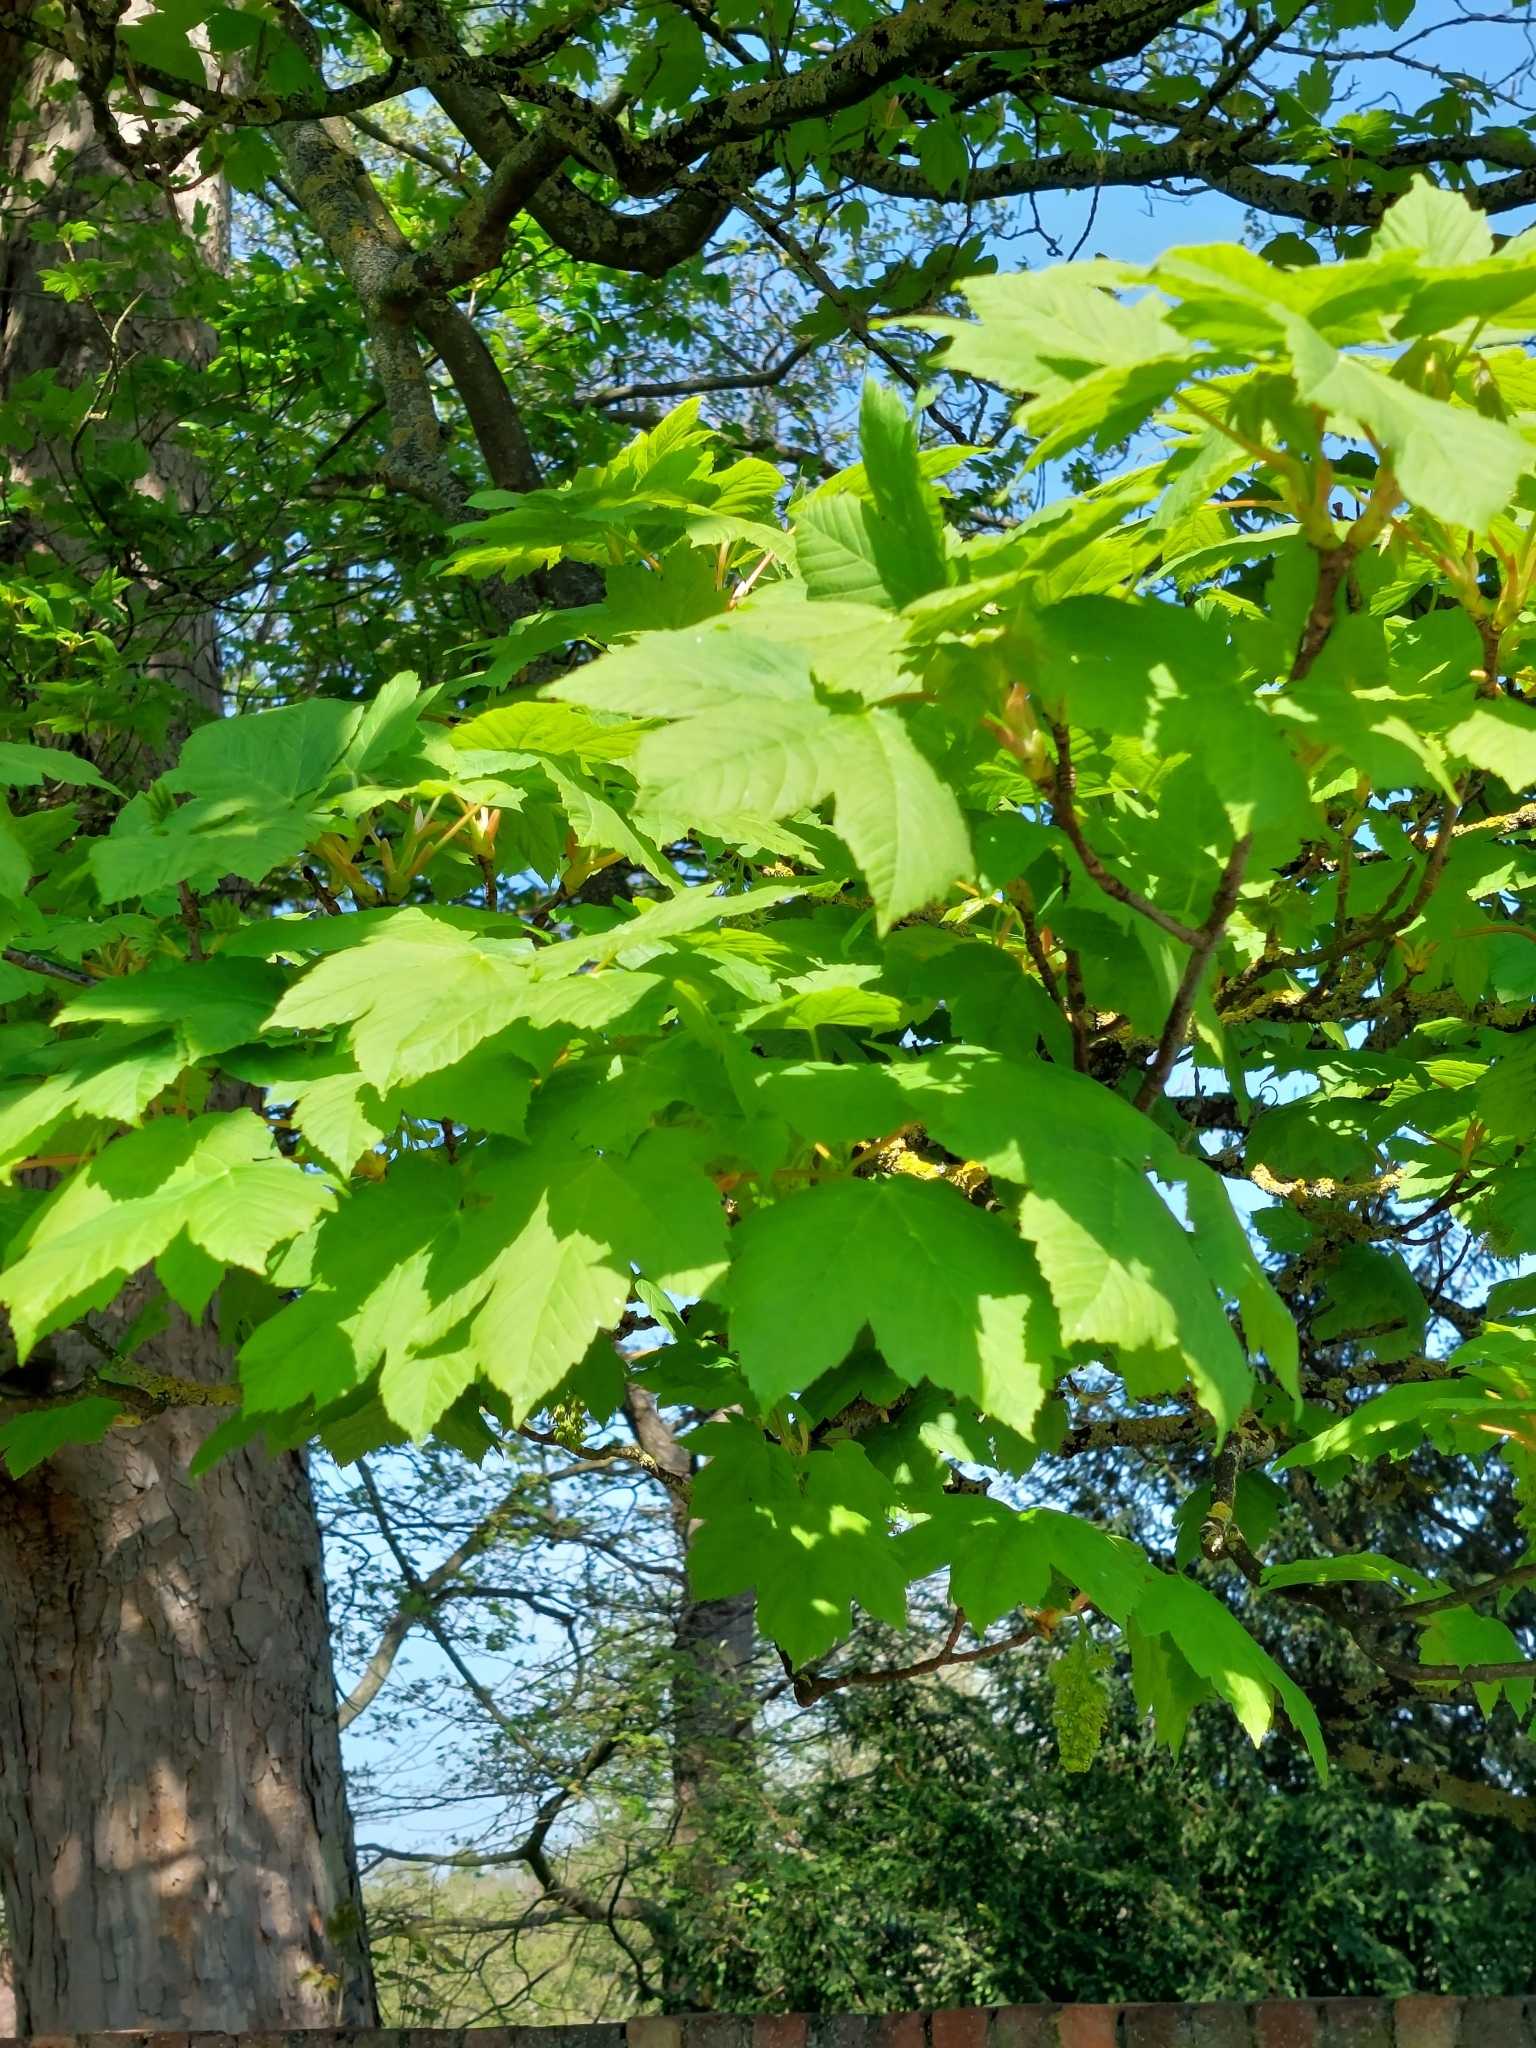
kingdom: Plantae
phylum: Tracheophyta
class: Magnoliopsida
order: Sapindales
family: Sapindaceae
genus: Acer
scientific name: Acer pseudoplatanus
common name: Sycamore
